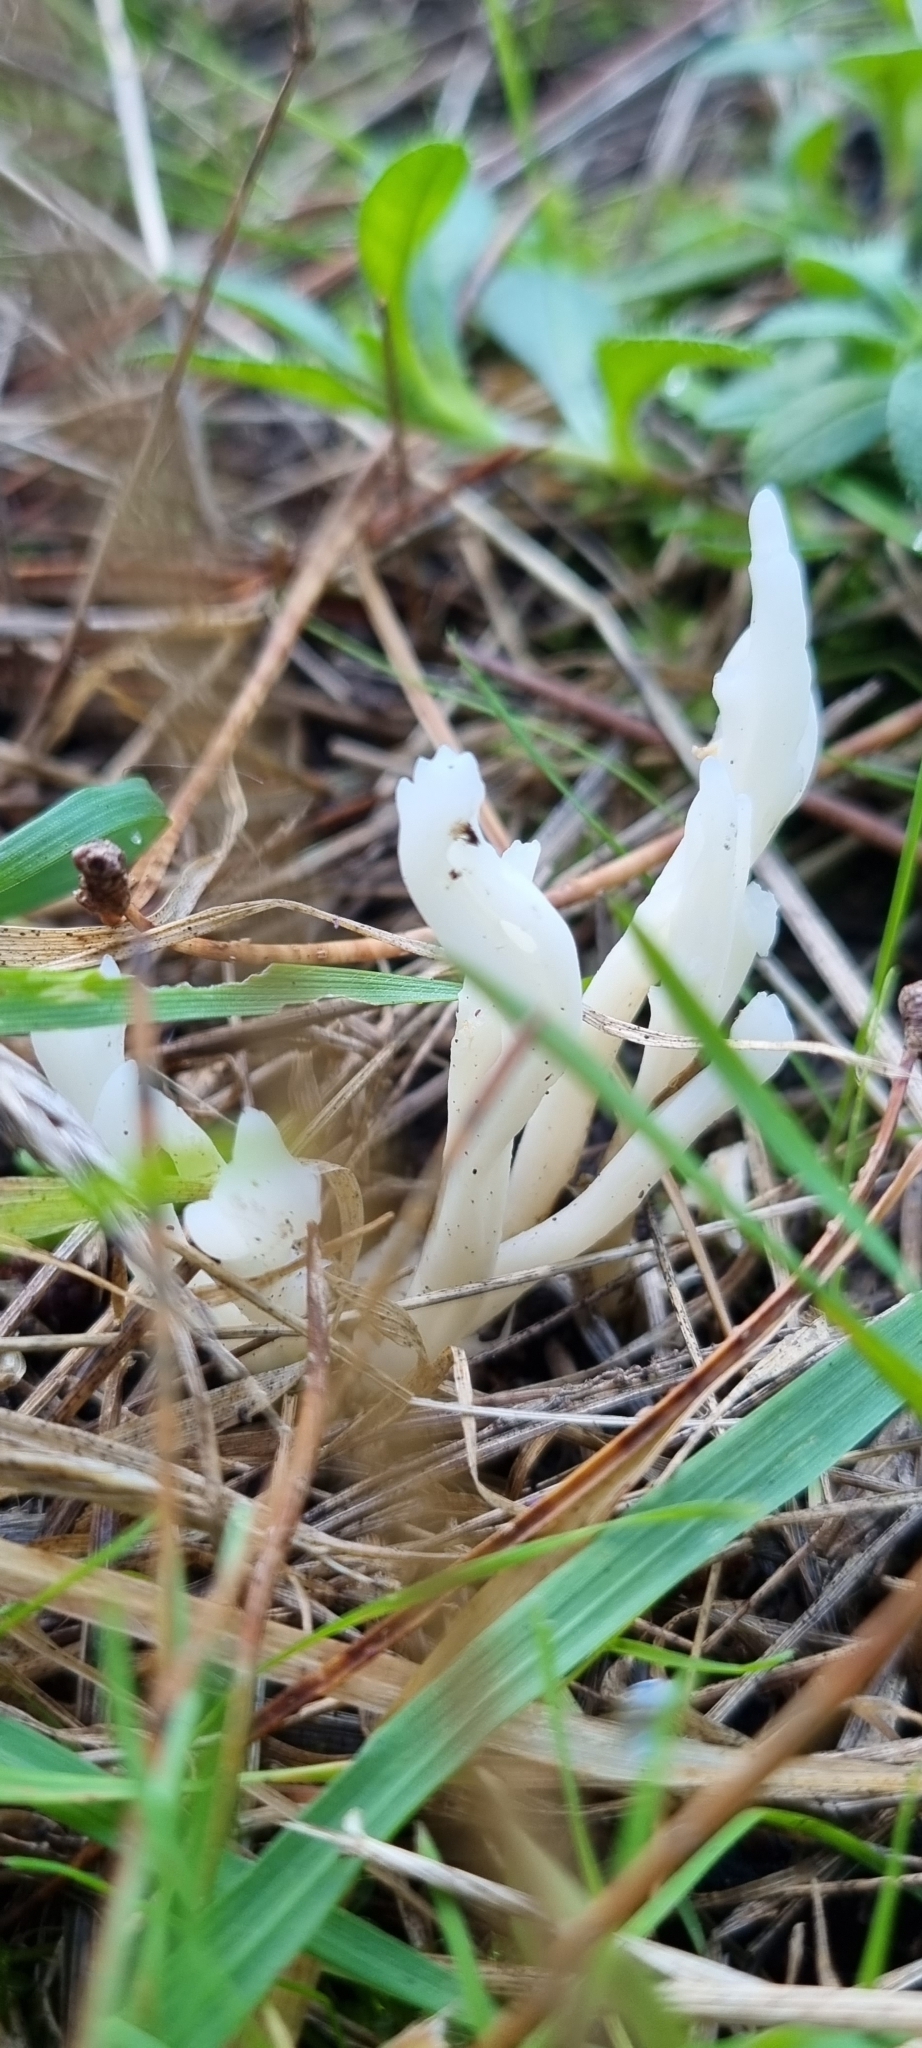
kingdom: Fungi
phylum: Basidiomycota
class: Agaricomycetes
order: Cantharellales
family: Hydnaceae
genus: Clavulina
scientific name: Clavulina rugosa
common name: Wrinkled club
